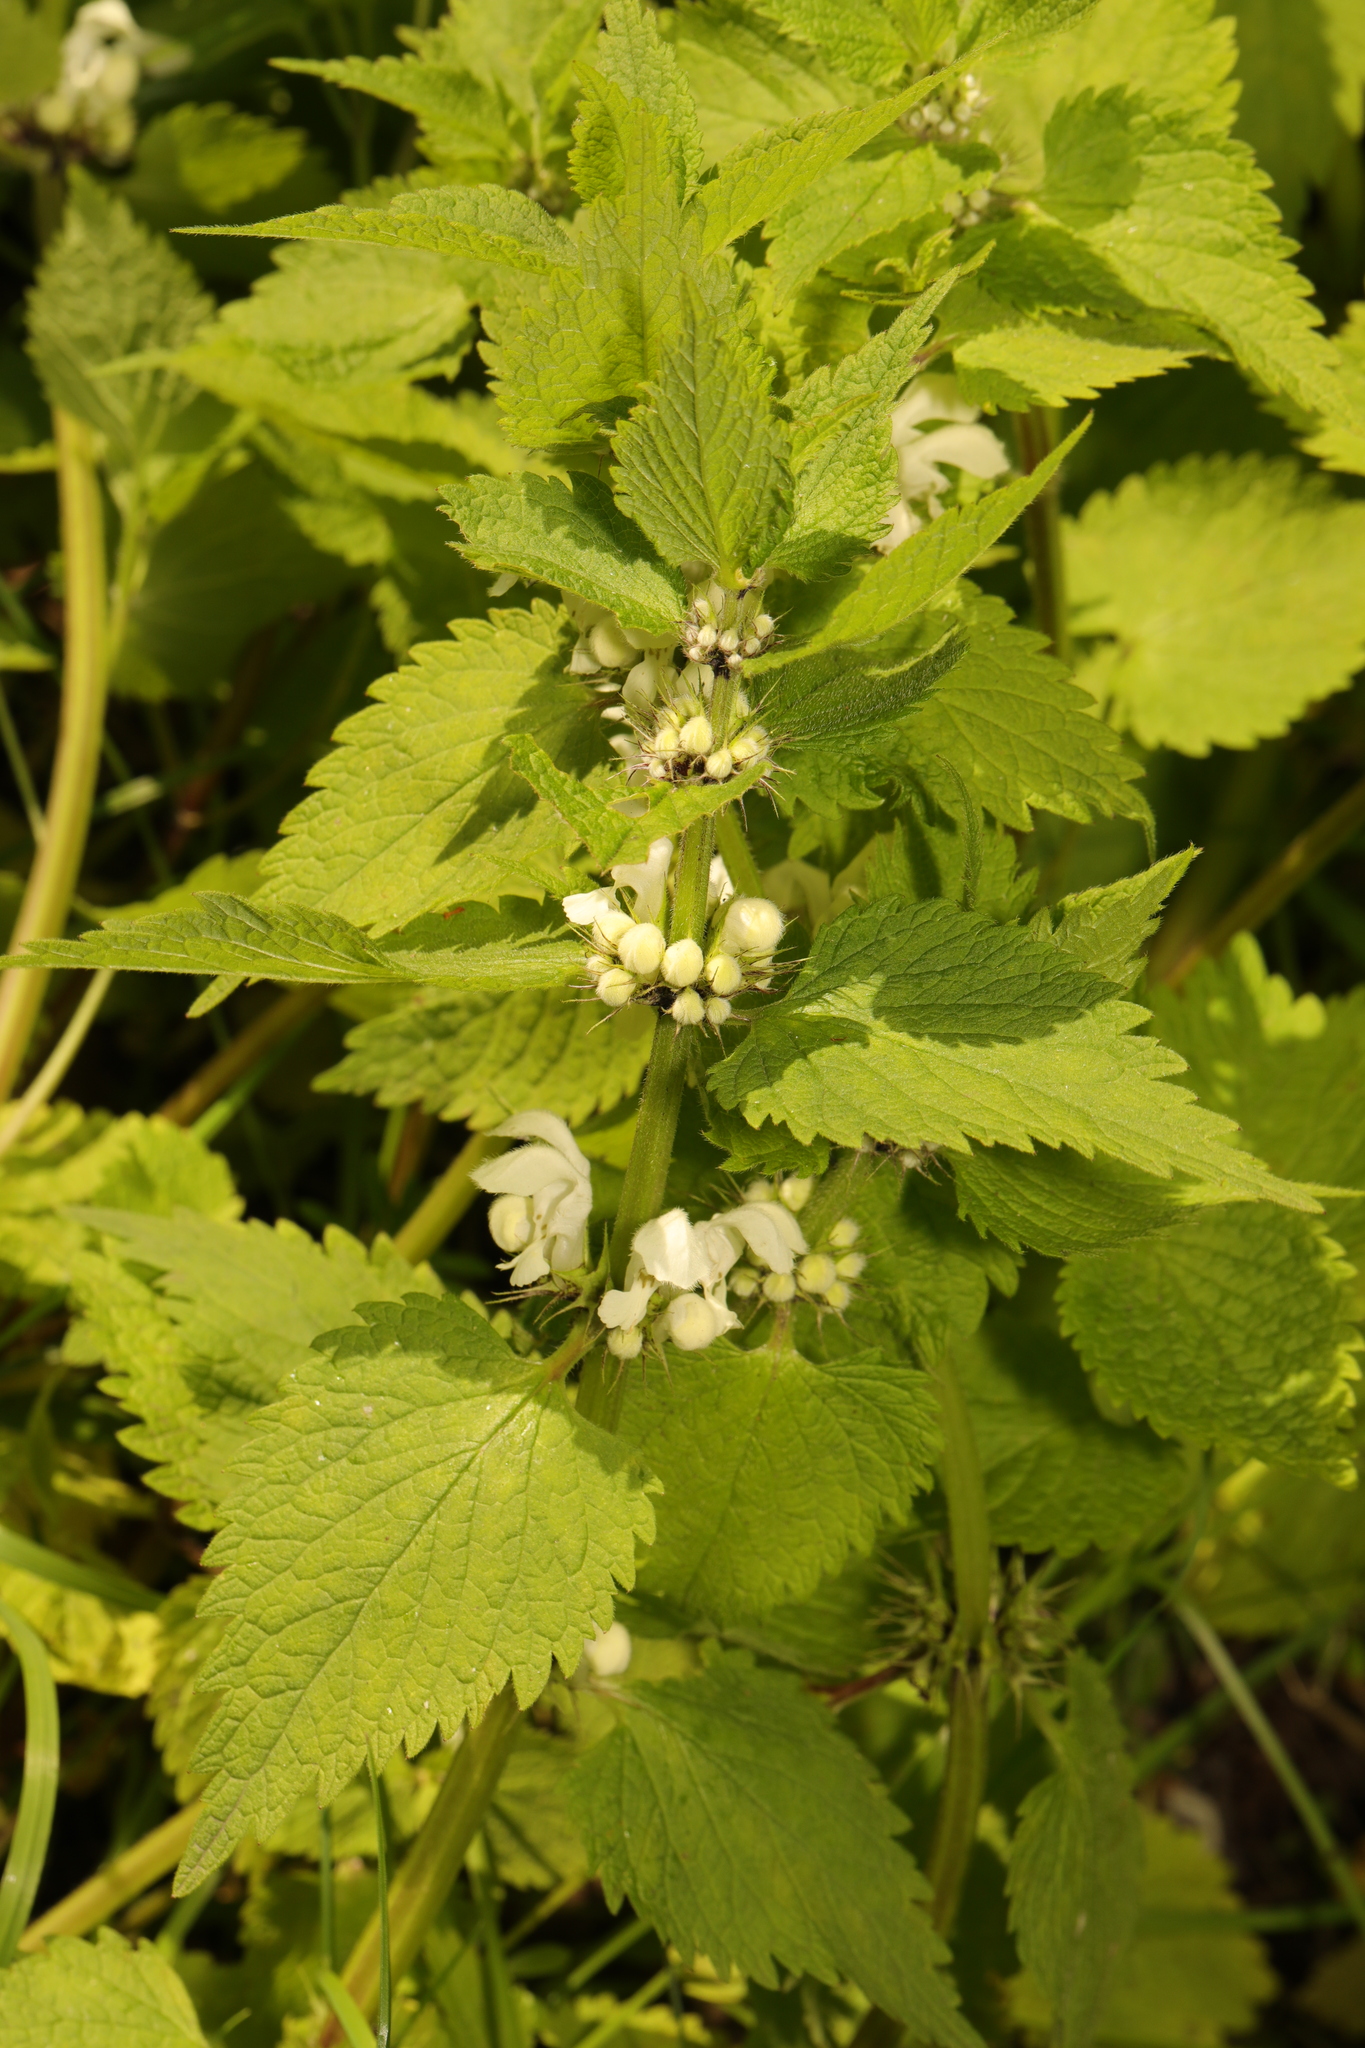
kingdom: Plantae
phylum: Tracheophyta
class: Magnoliopsida
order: Lamiales
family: Lamiaceae
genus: Lamium
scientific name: Lamium album
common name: White dead-nettle
